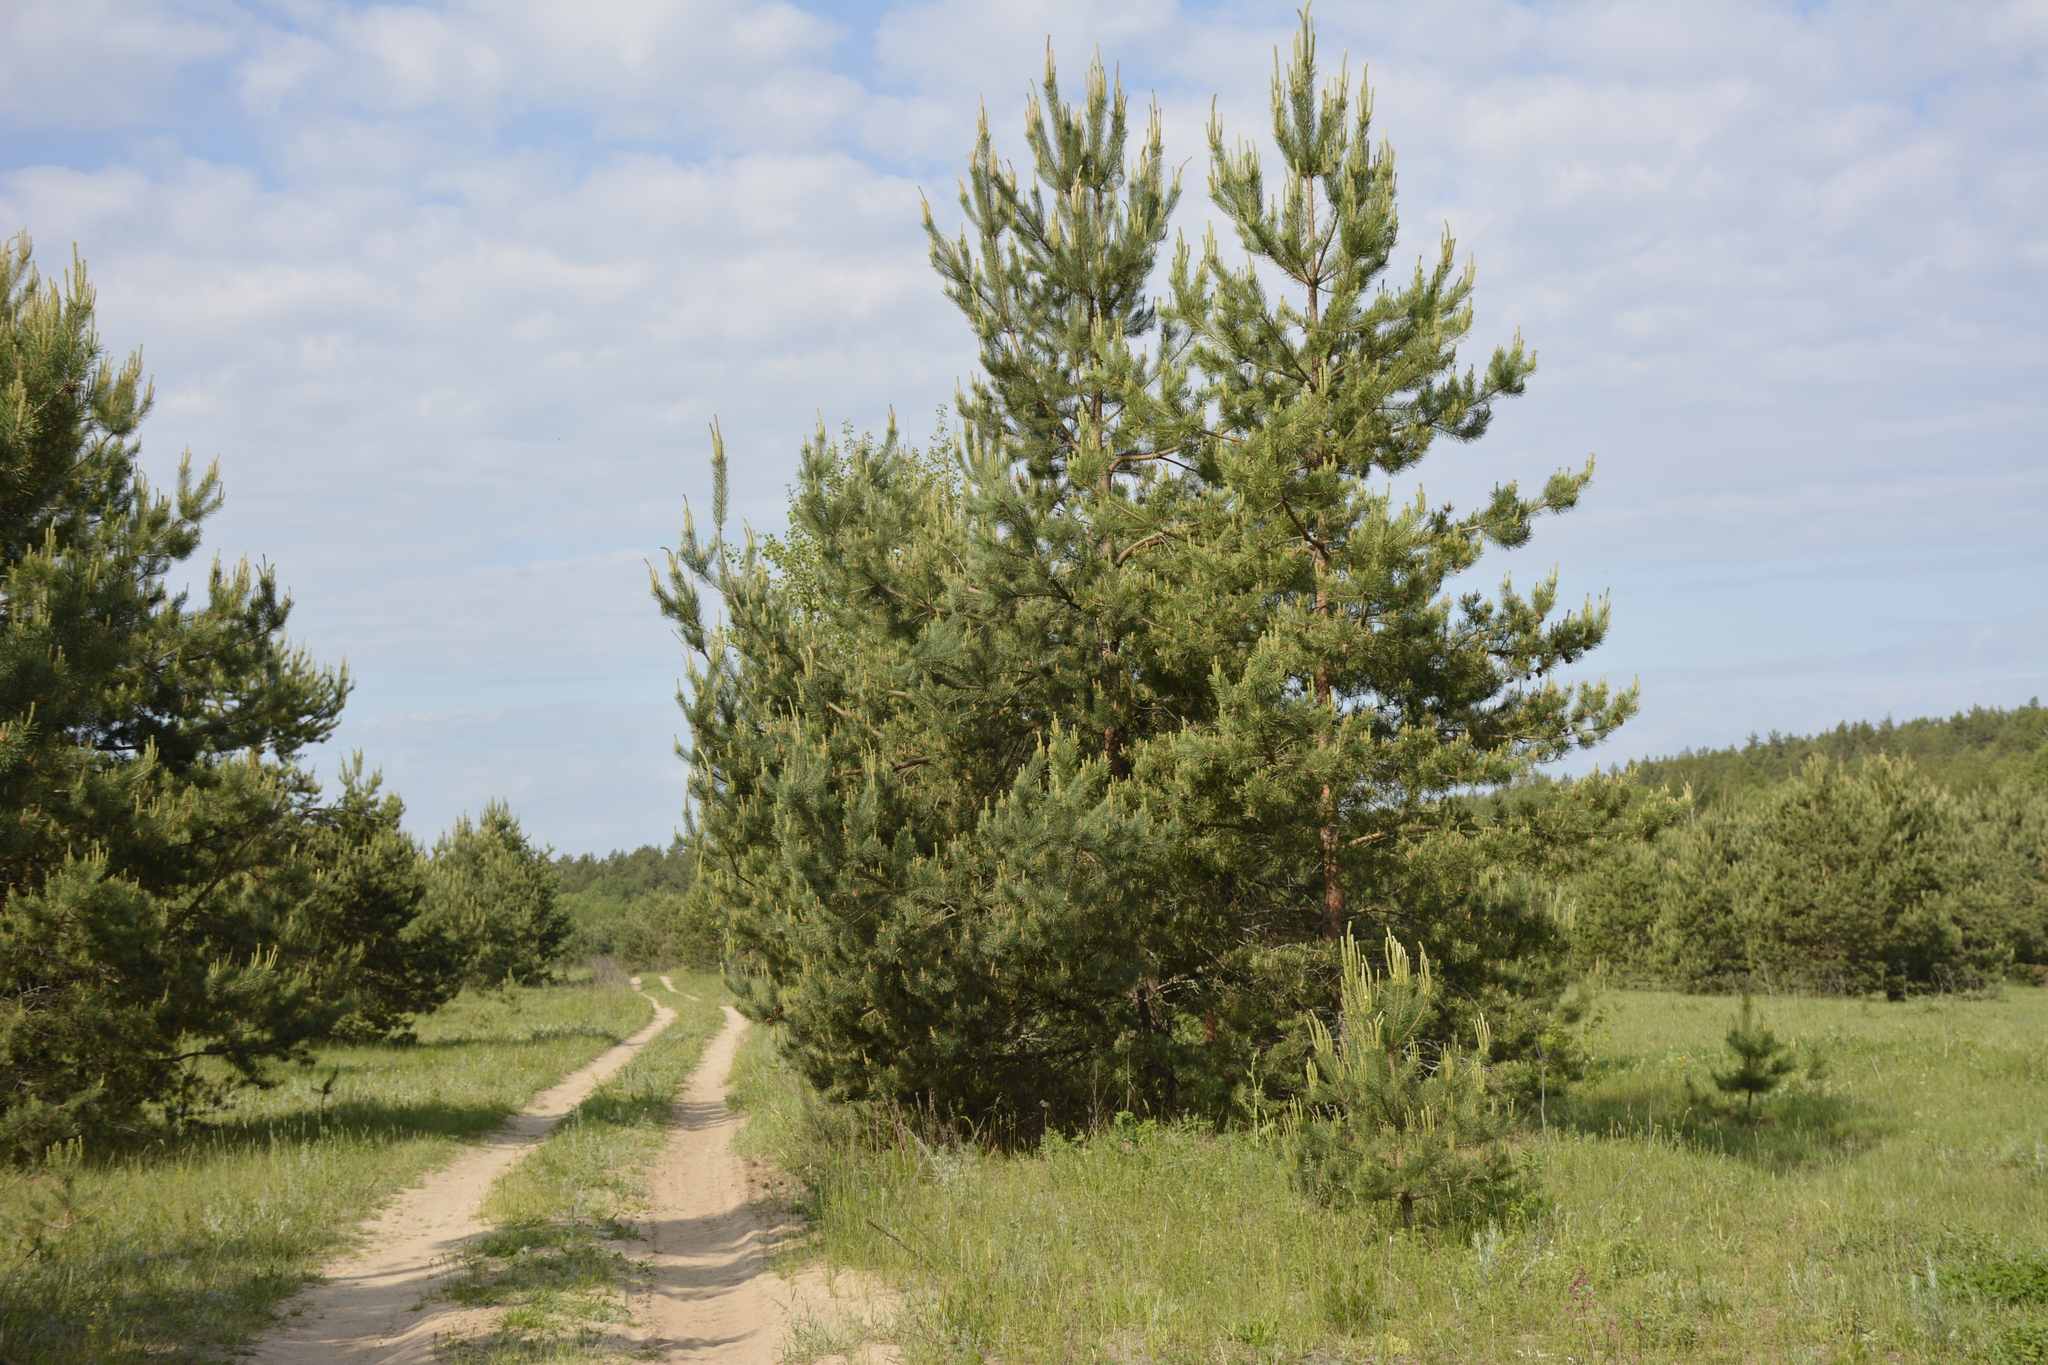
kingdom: Plantae
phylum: Tracheophyta
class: Pinopsida
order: Pinales
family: Pinaceae
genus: Pinus
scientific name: Pinus sylvestris
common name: Scots pine
